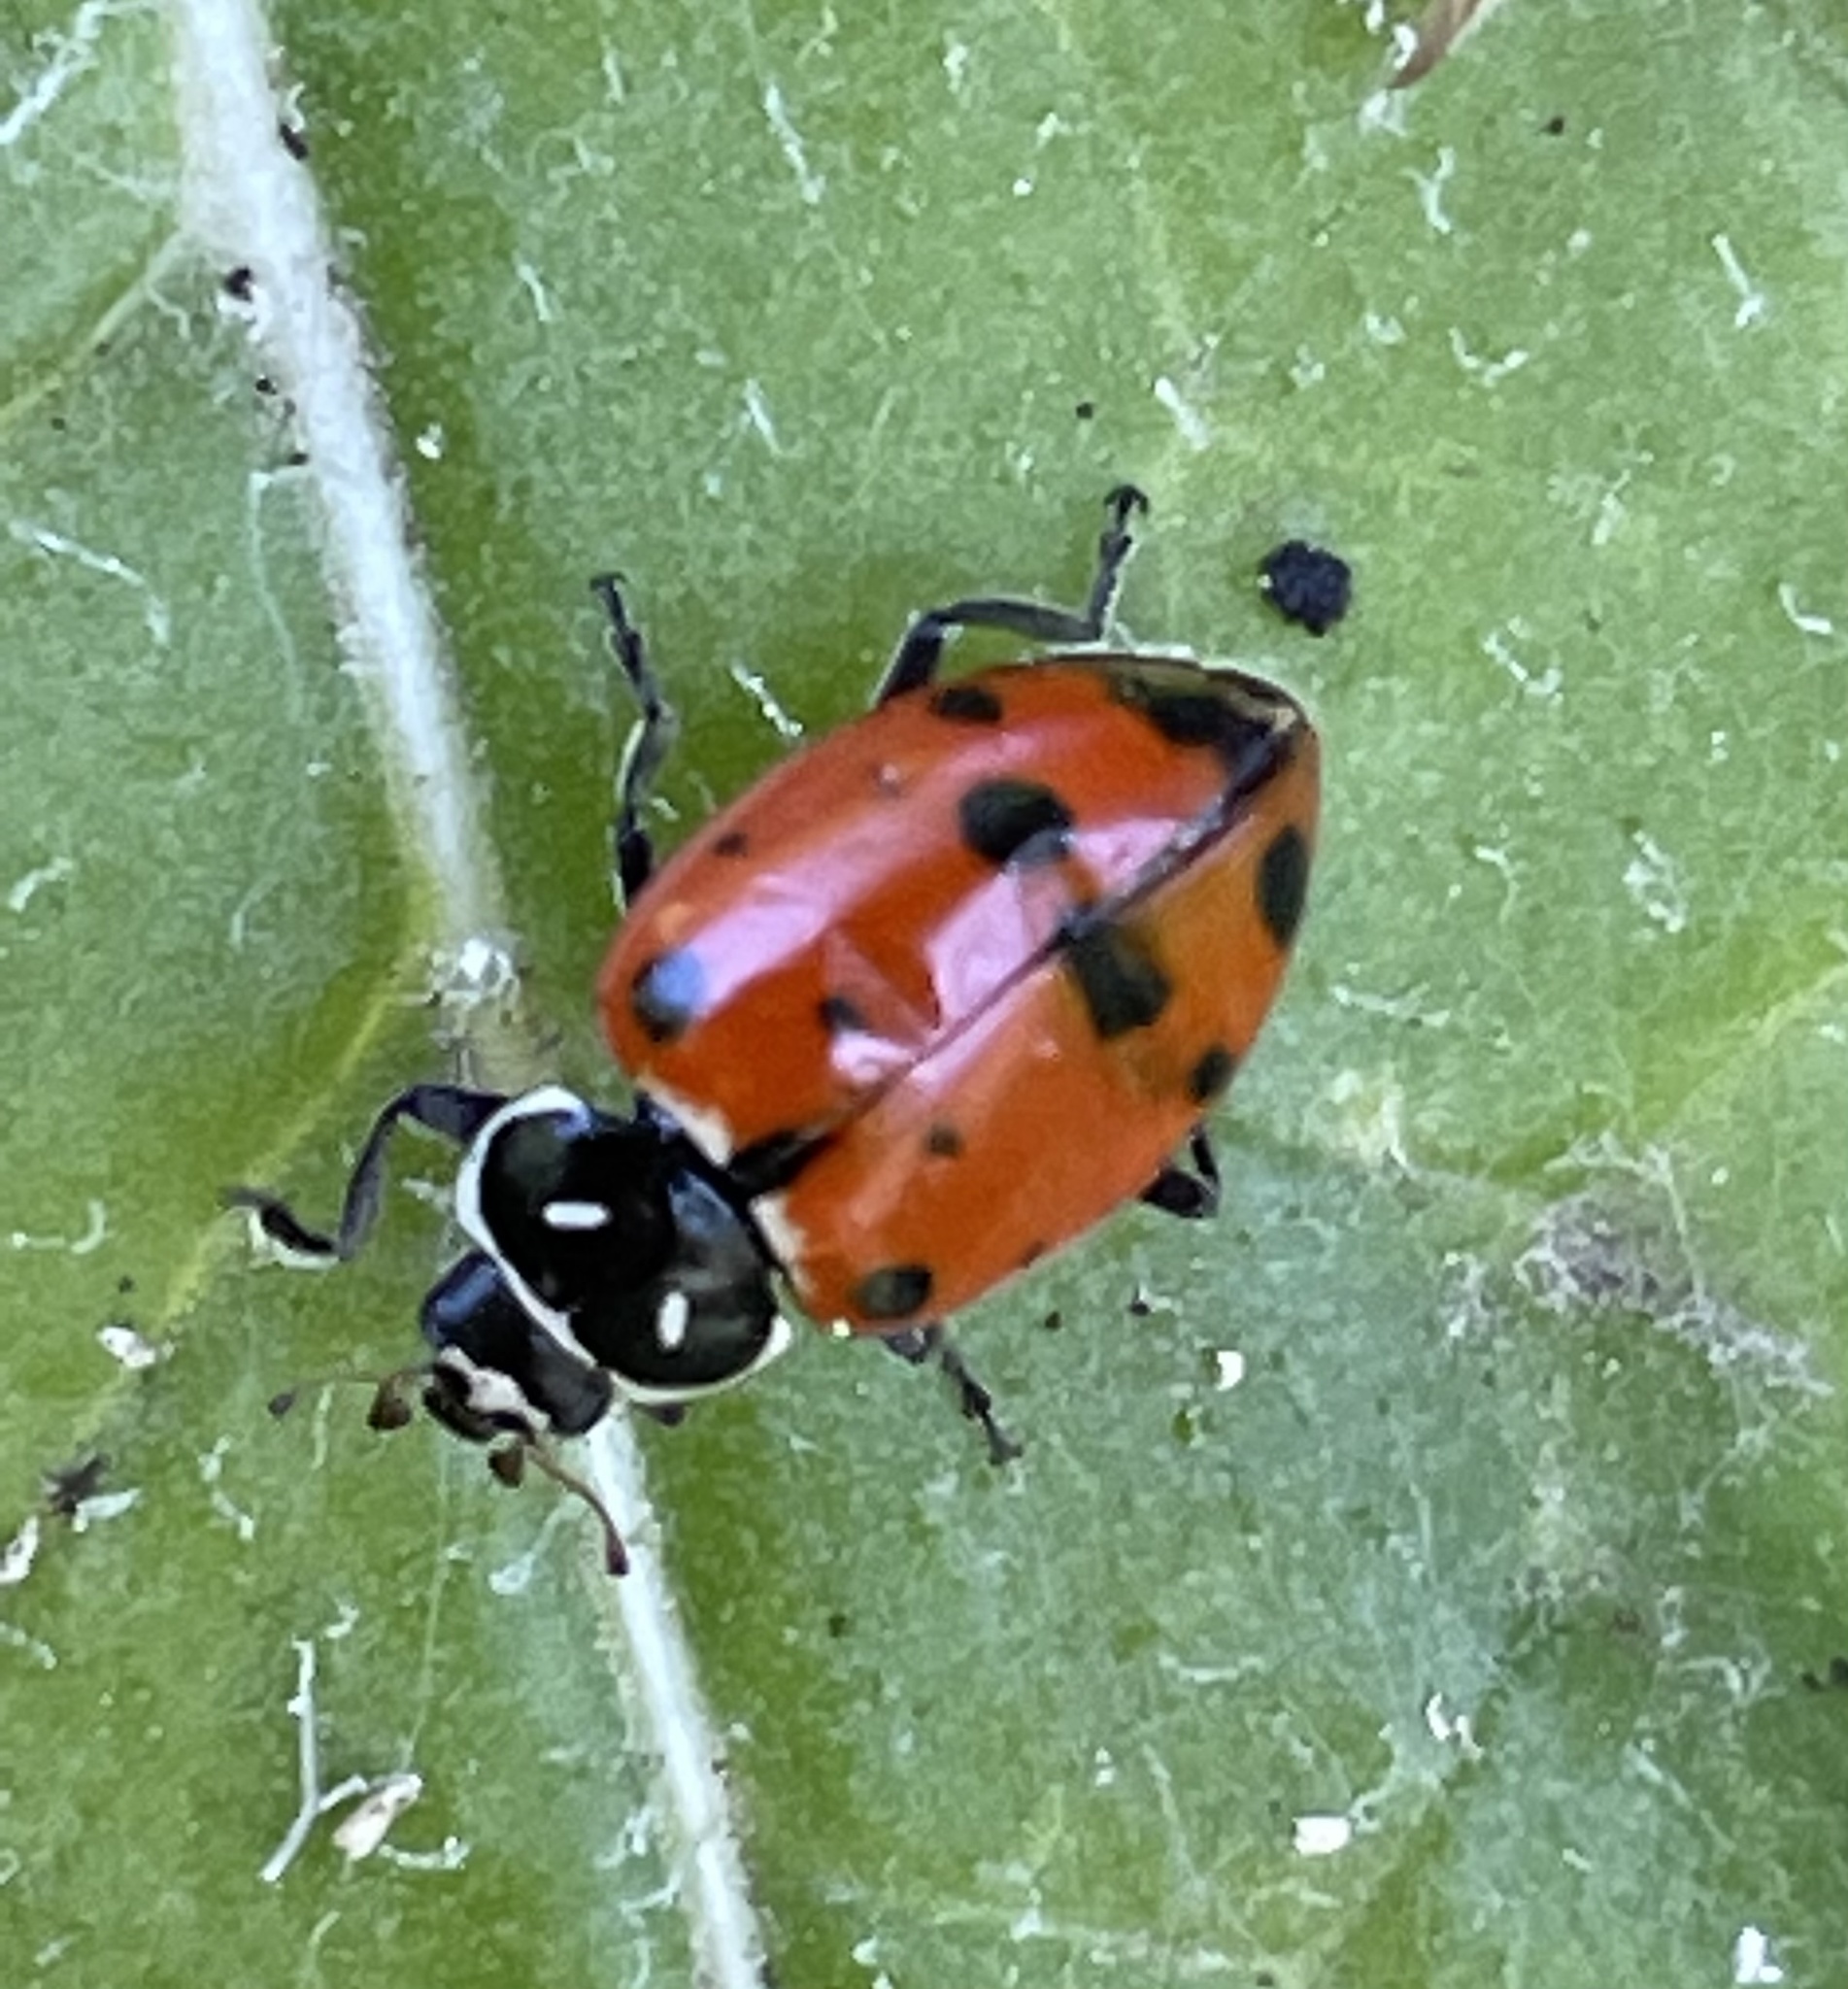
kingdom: Animalia
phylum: Arthropoda
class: Insecta
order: Coleoptera
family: Coccinellidae
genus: Hippodamia
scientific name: Hippodamia convergens
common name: Convergent lady beetle
